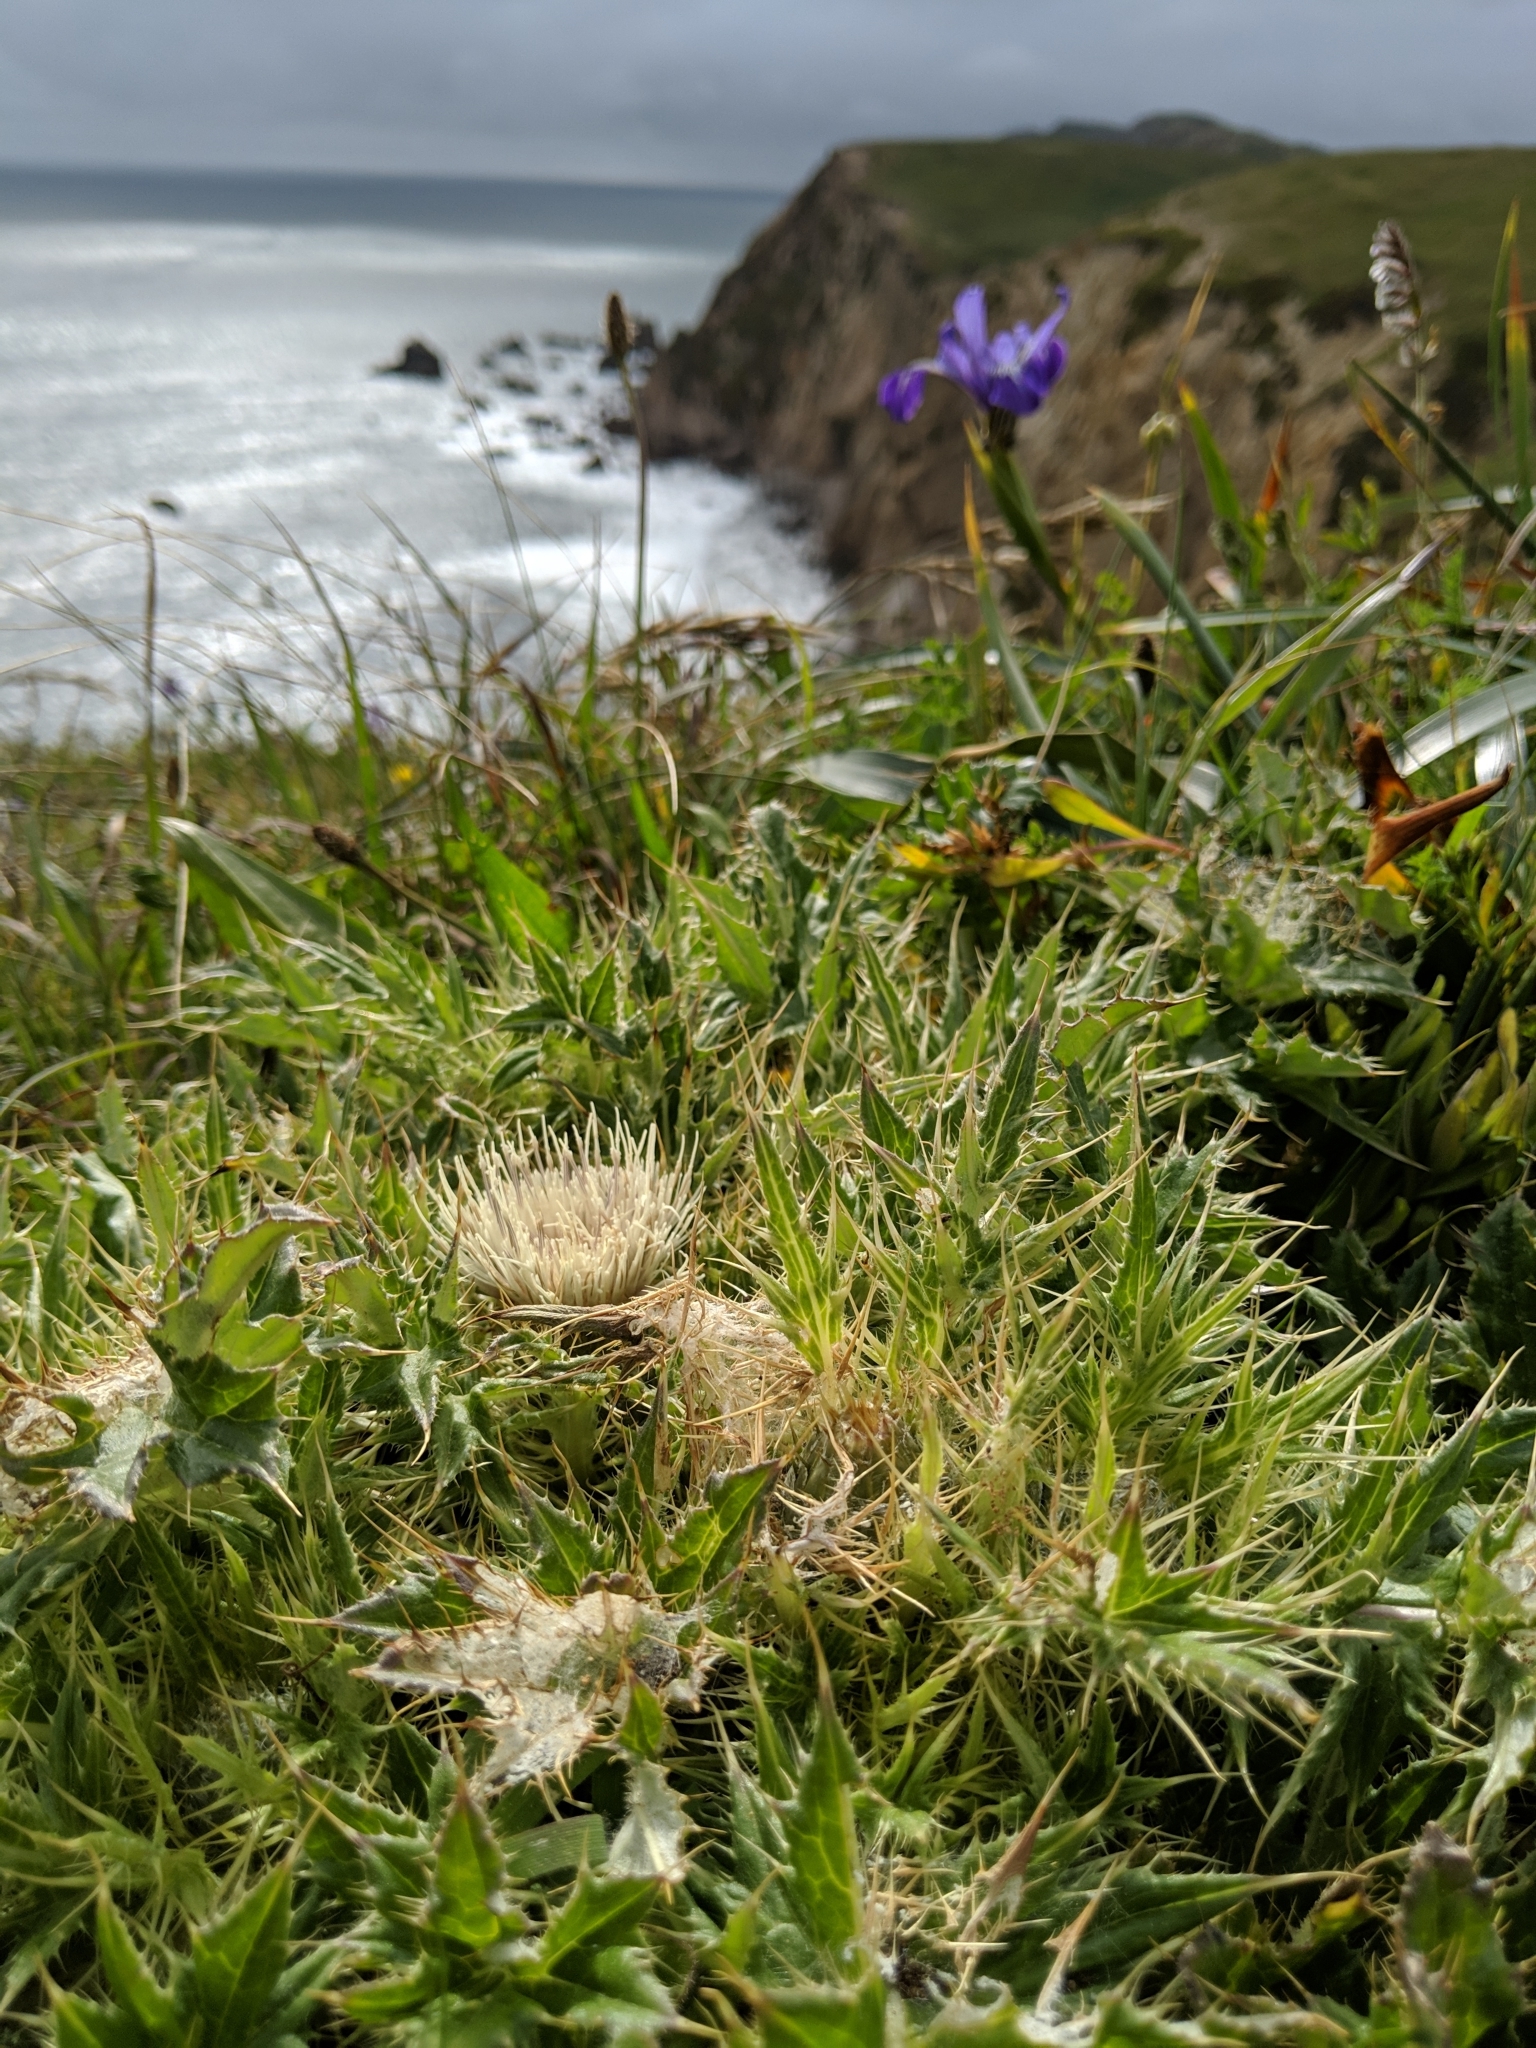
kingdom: Plantae
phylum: Tracheophyta
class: Magnoliopsida
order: Asterales
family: Asteraceae
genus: Cirsium
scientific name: Cirsium quercetorum
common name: Alameda county thistle
